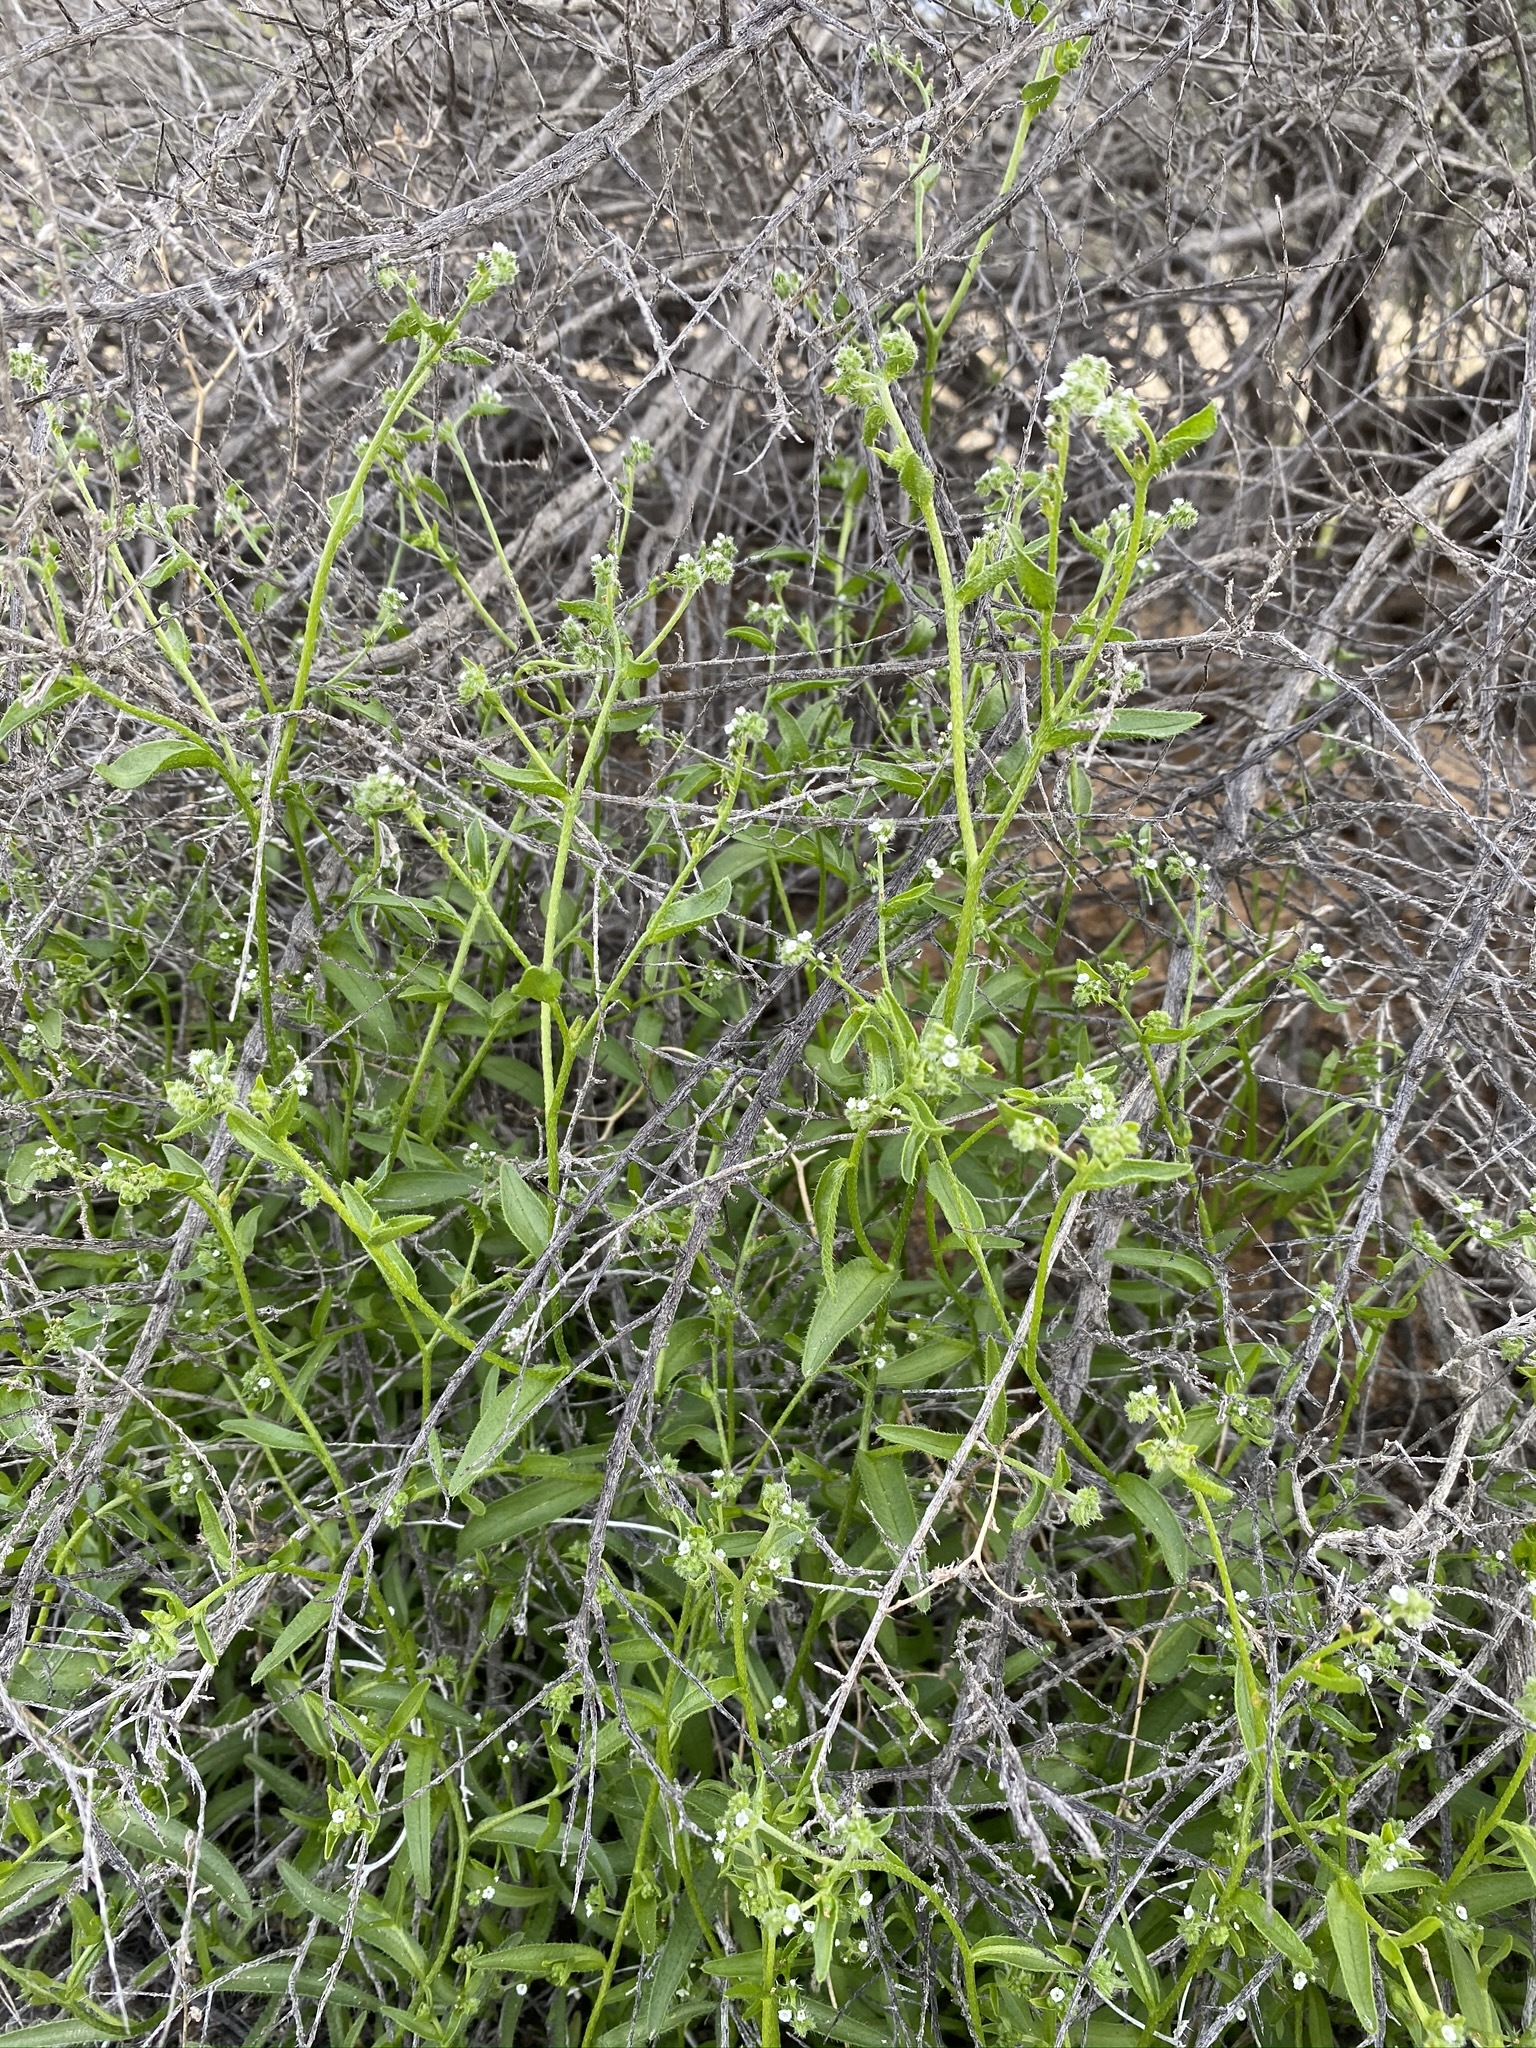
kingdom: Plantae
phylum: Tracheophyta
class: Magnoliopsida
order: Boraginales
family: Boraginaceae
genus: Cryptantha
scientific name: Cryptantha dumetorum
